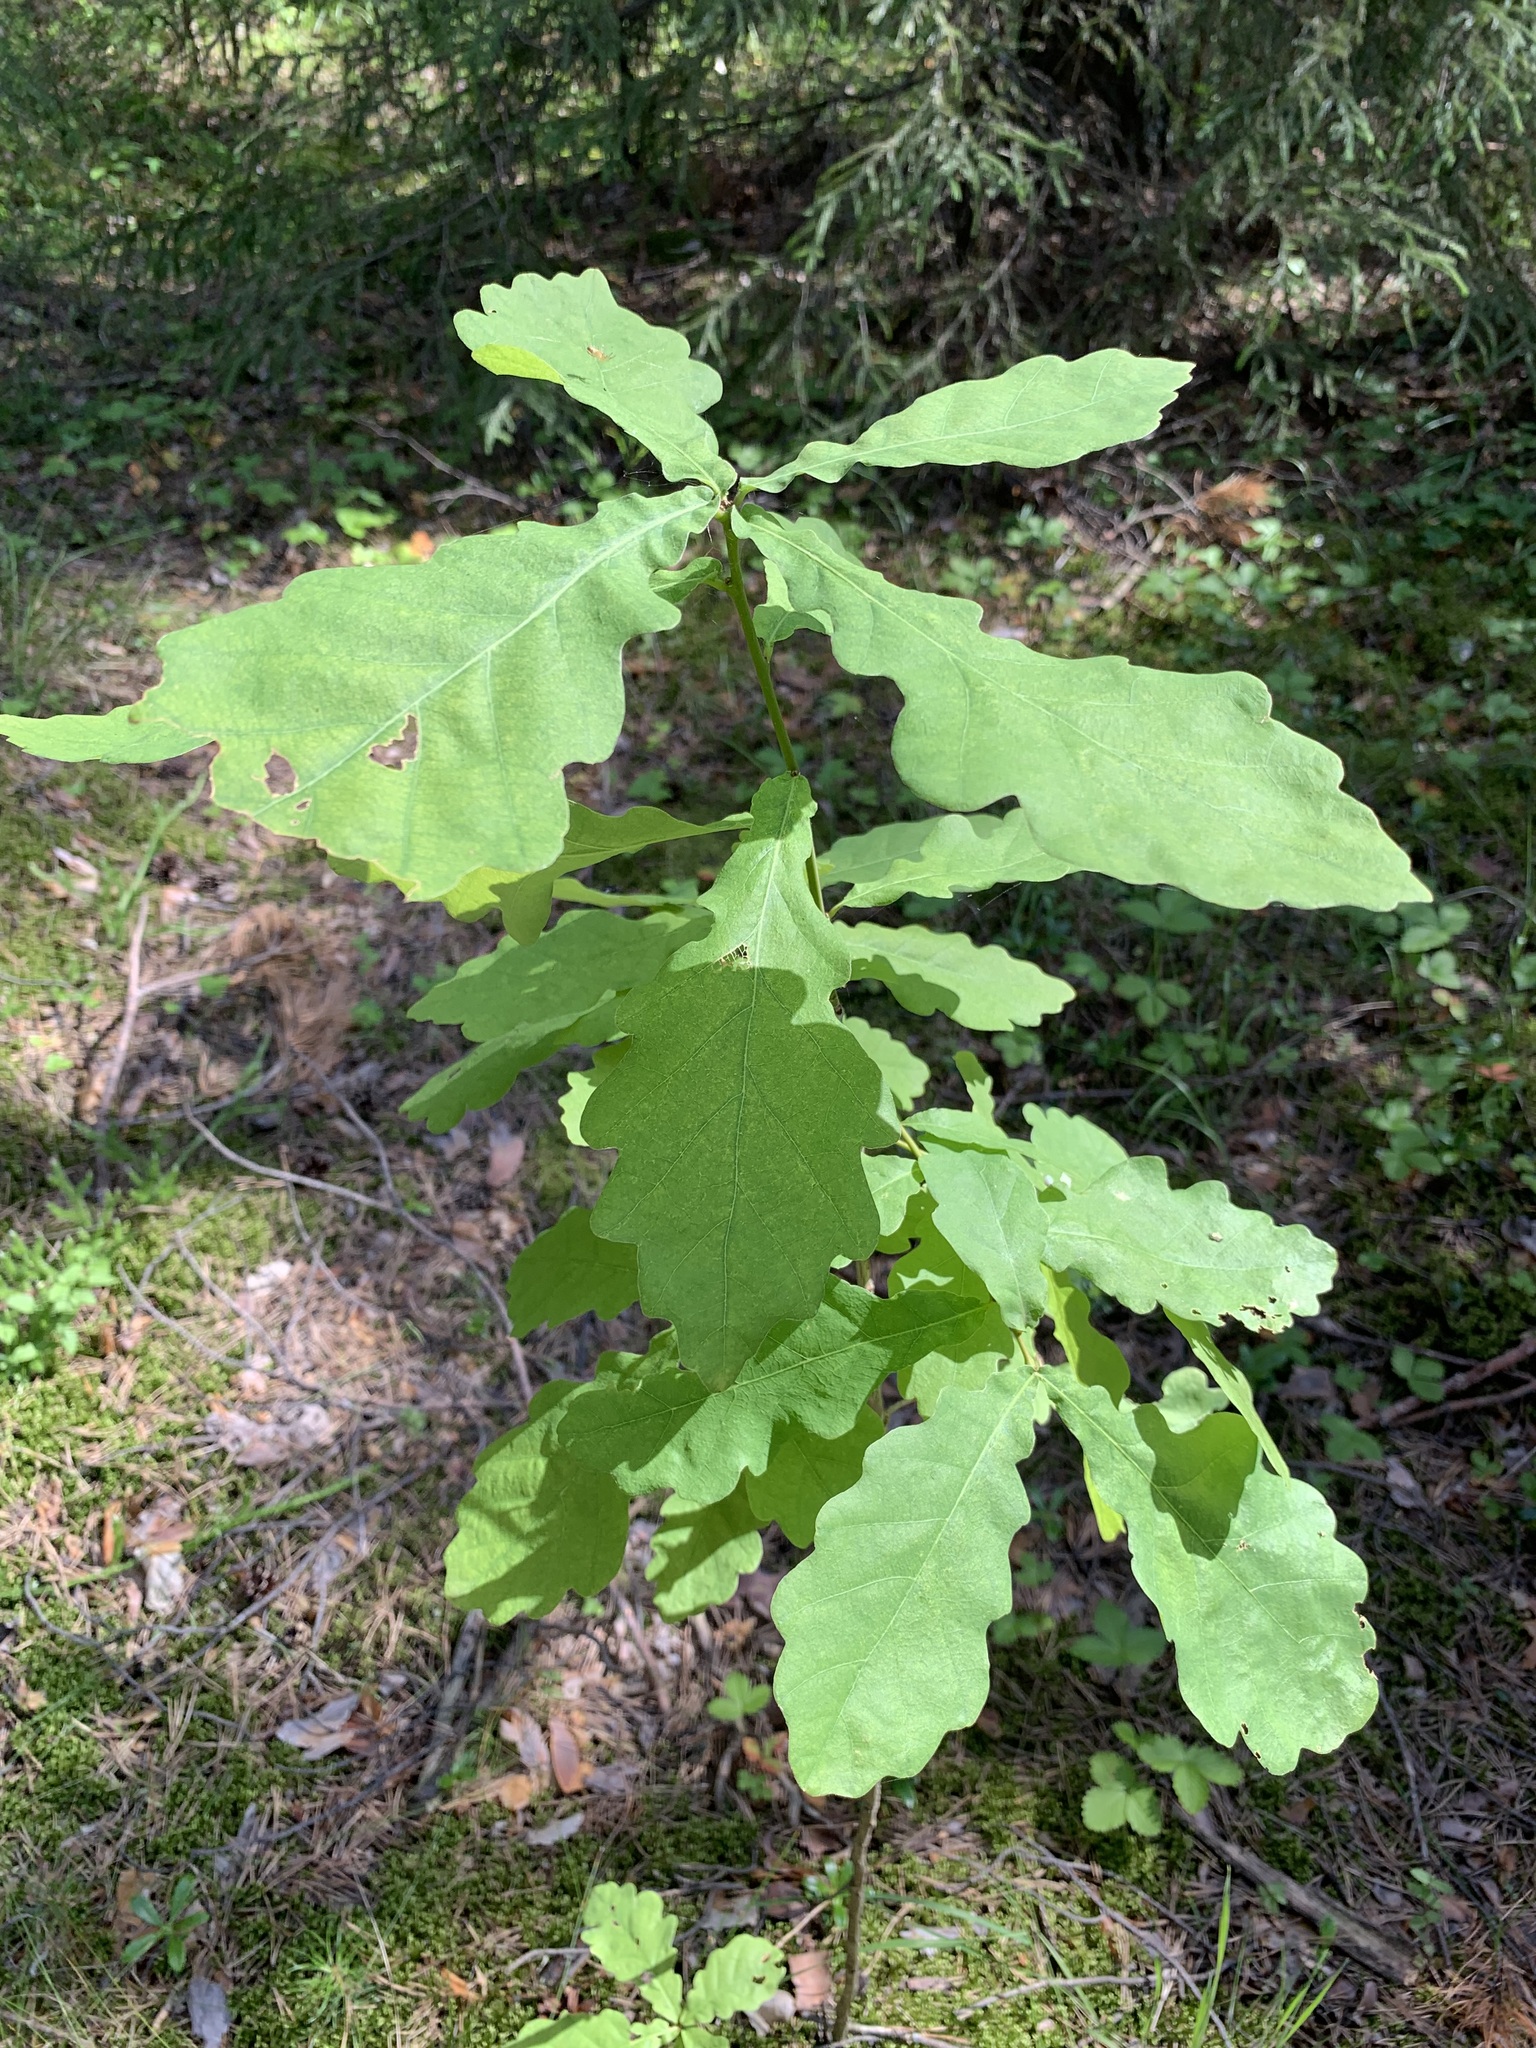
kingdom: Plantae
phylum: Tracheophyta
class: Magnoliopsida
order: Fagales
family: Fagaceae
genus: Quercus
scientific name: Quercus robur
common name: Pedunculate oak
